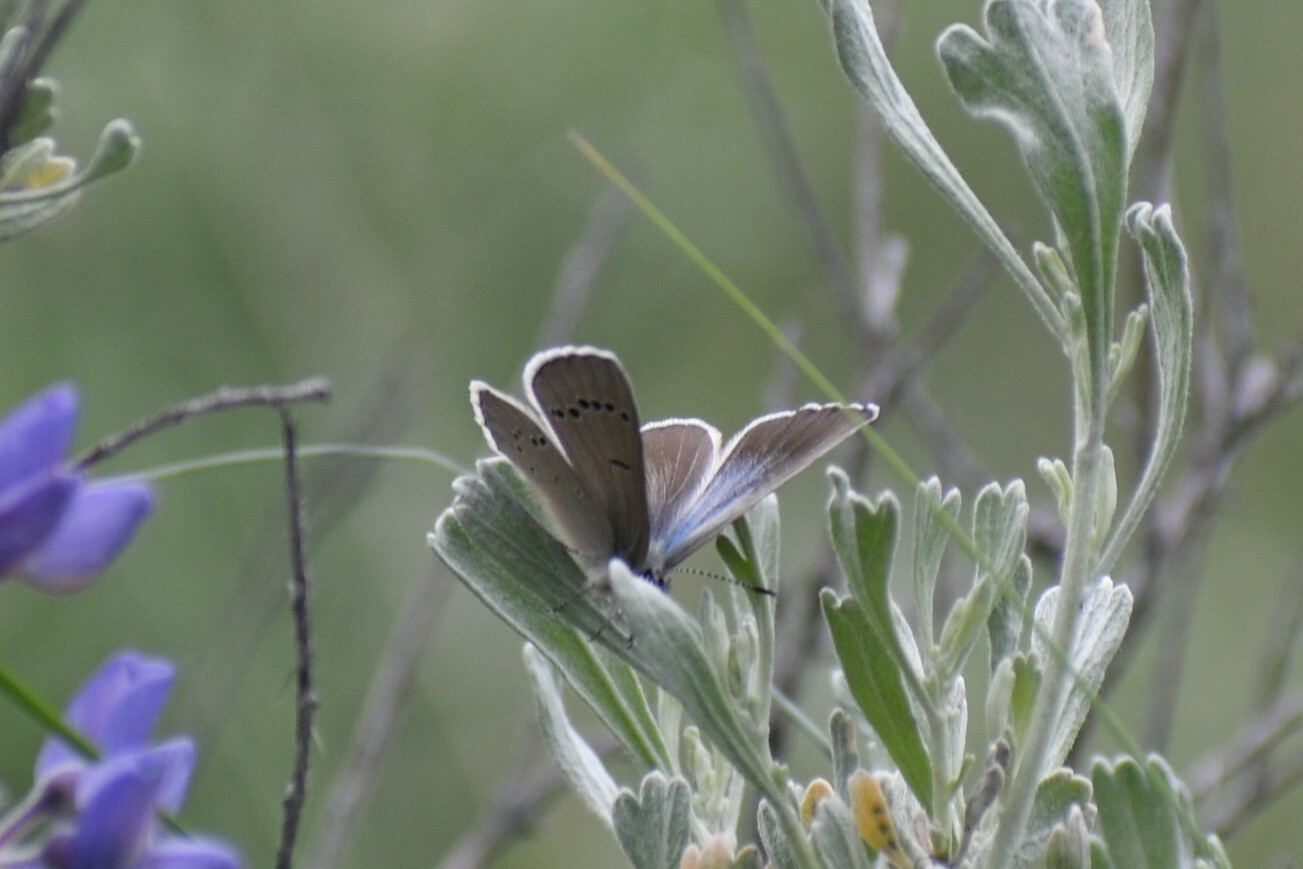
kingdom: Animalia
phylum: Arthropoda
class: Insecta
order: Lepidoptera
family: Lycaenidae
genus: Glaucopsyche
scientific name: Glaucopsyche lygdamus
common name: Silvery blue
